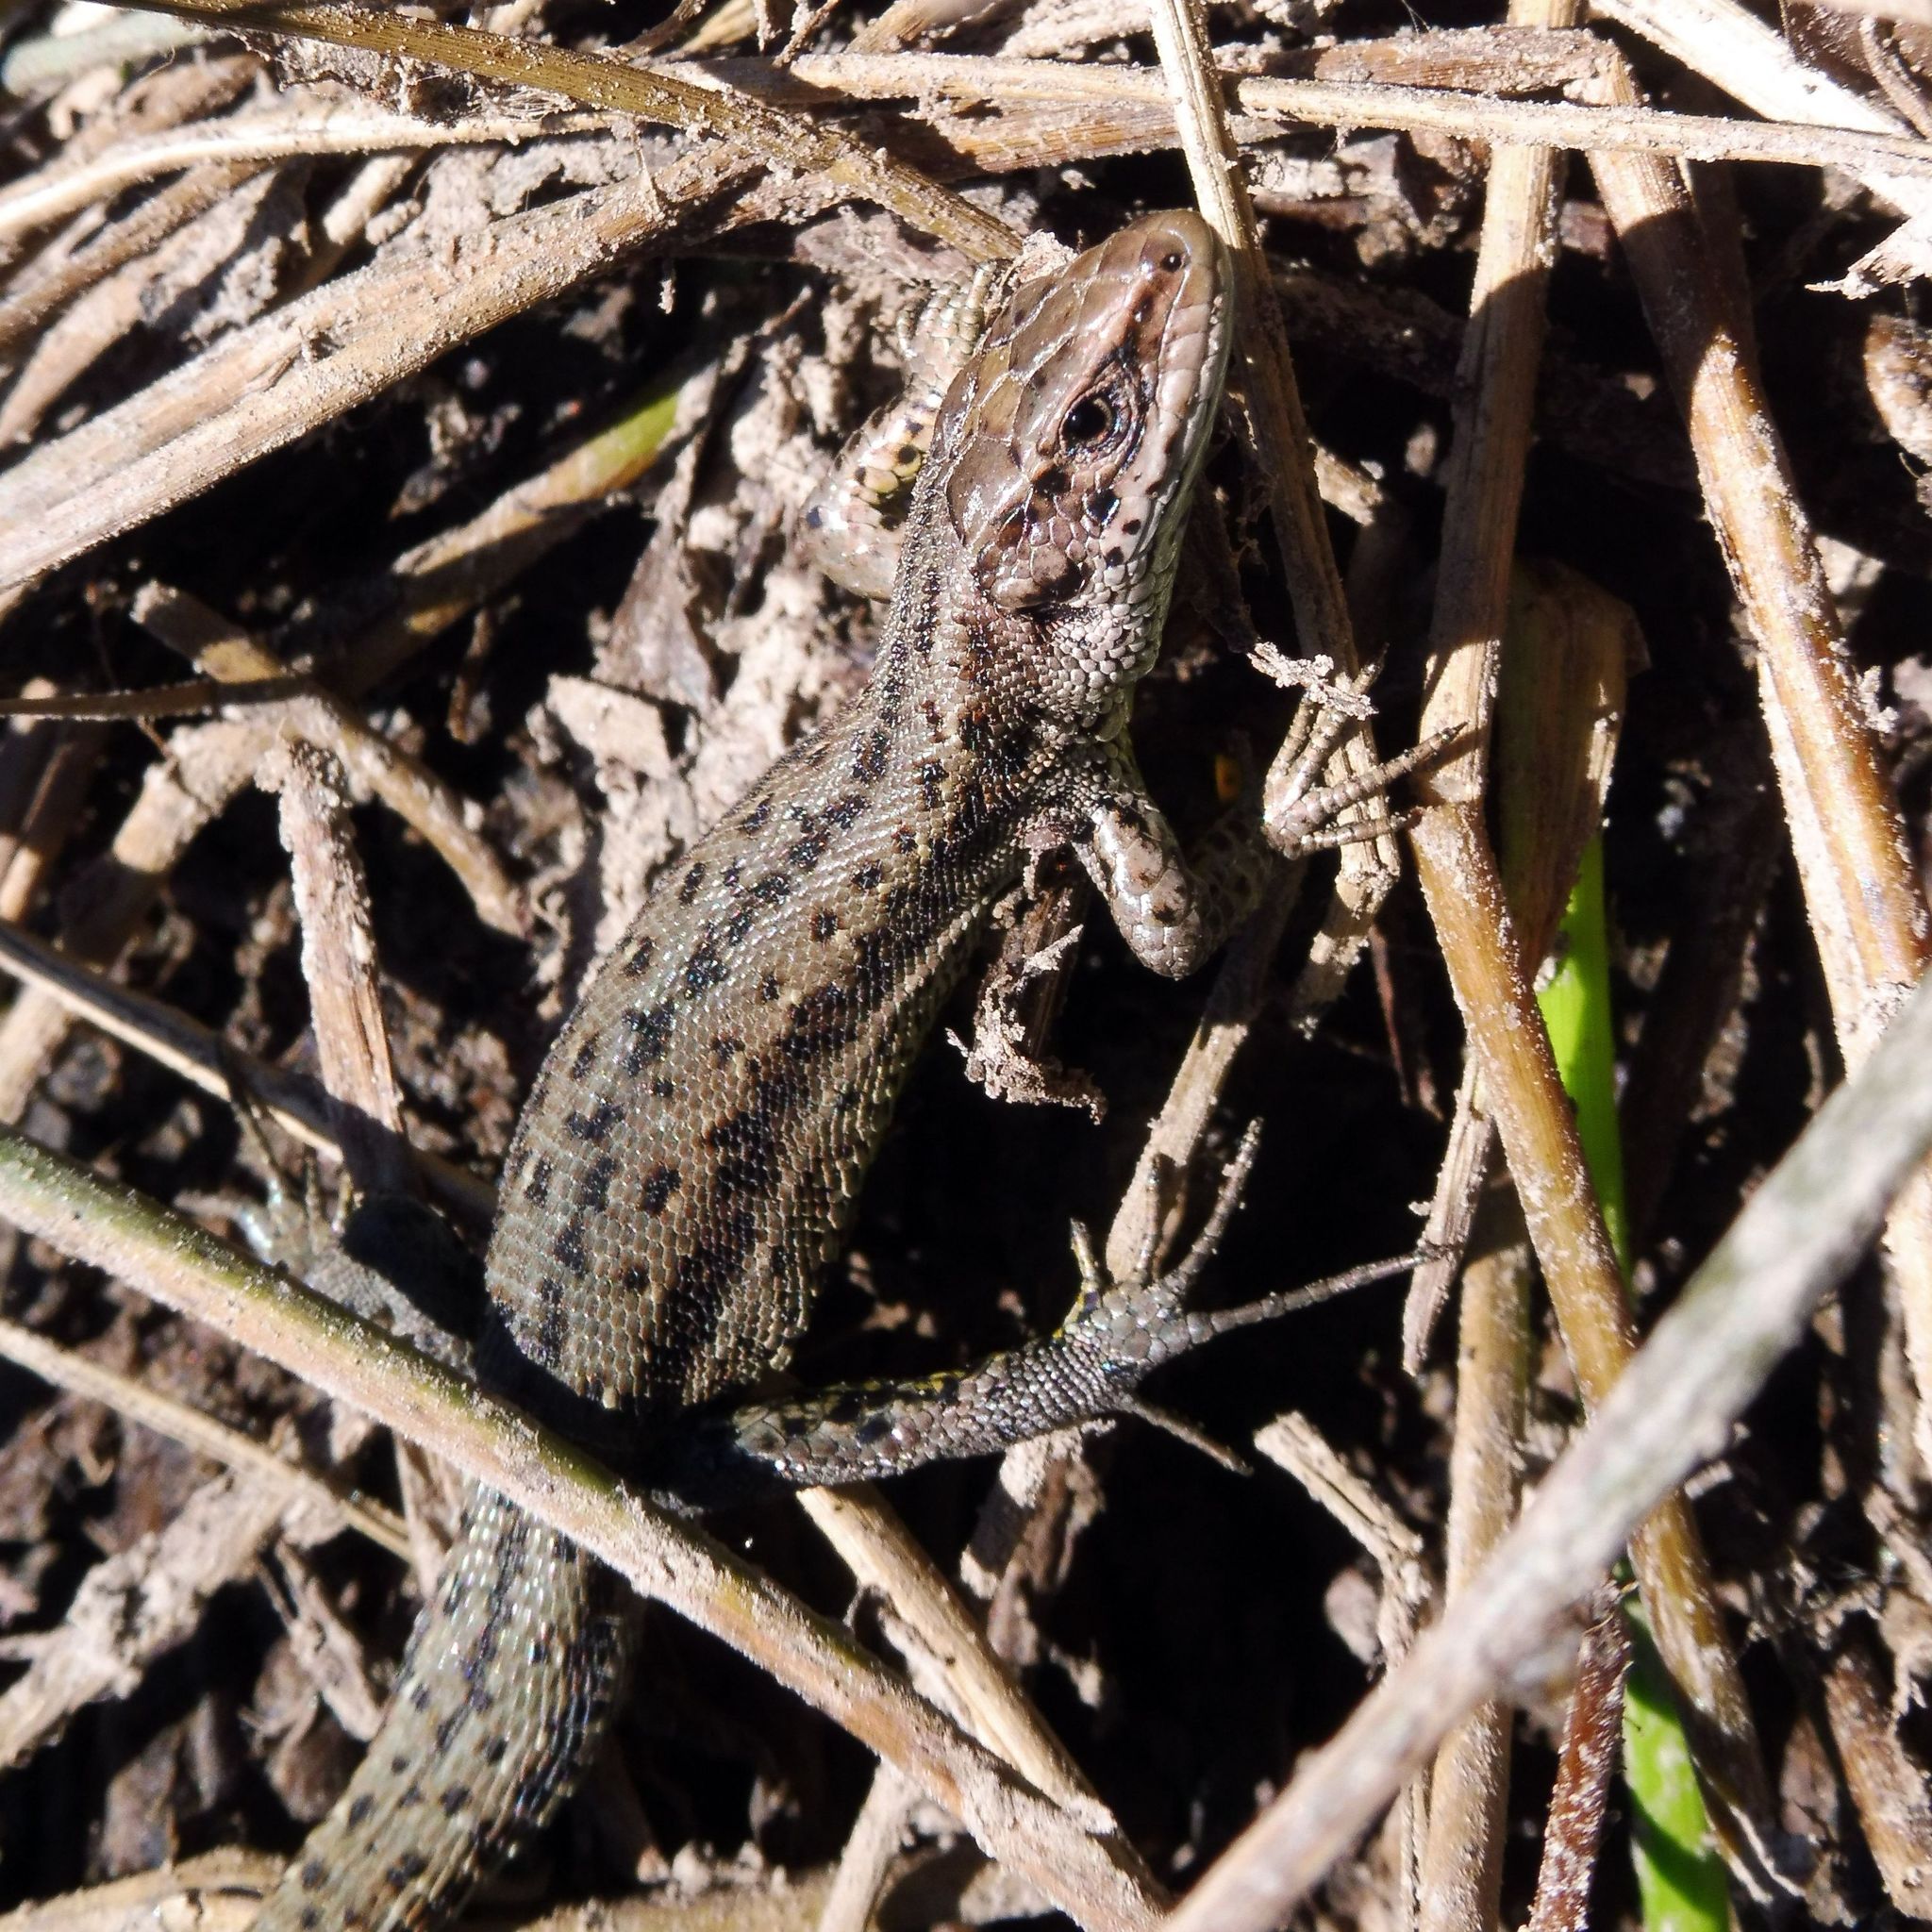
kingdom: Animalia
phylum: Chordata
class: Squamata
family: Lacertidae
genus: Zootoca
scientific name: Zootoca vivipara
